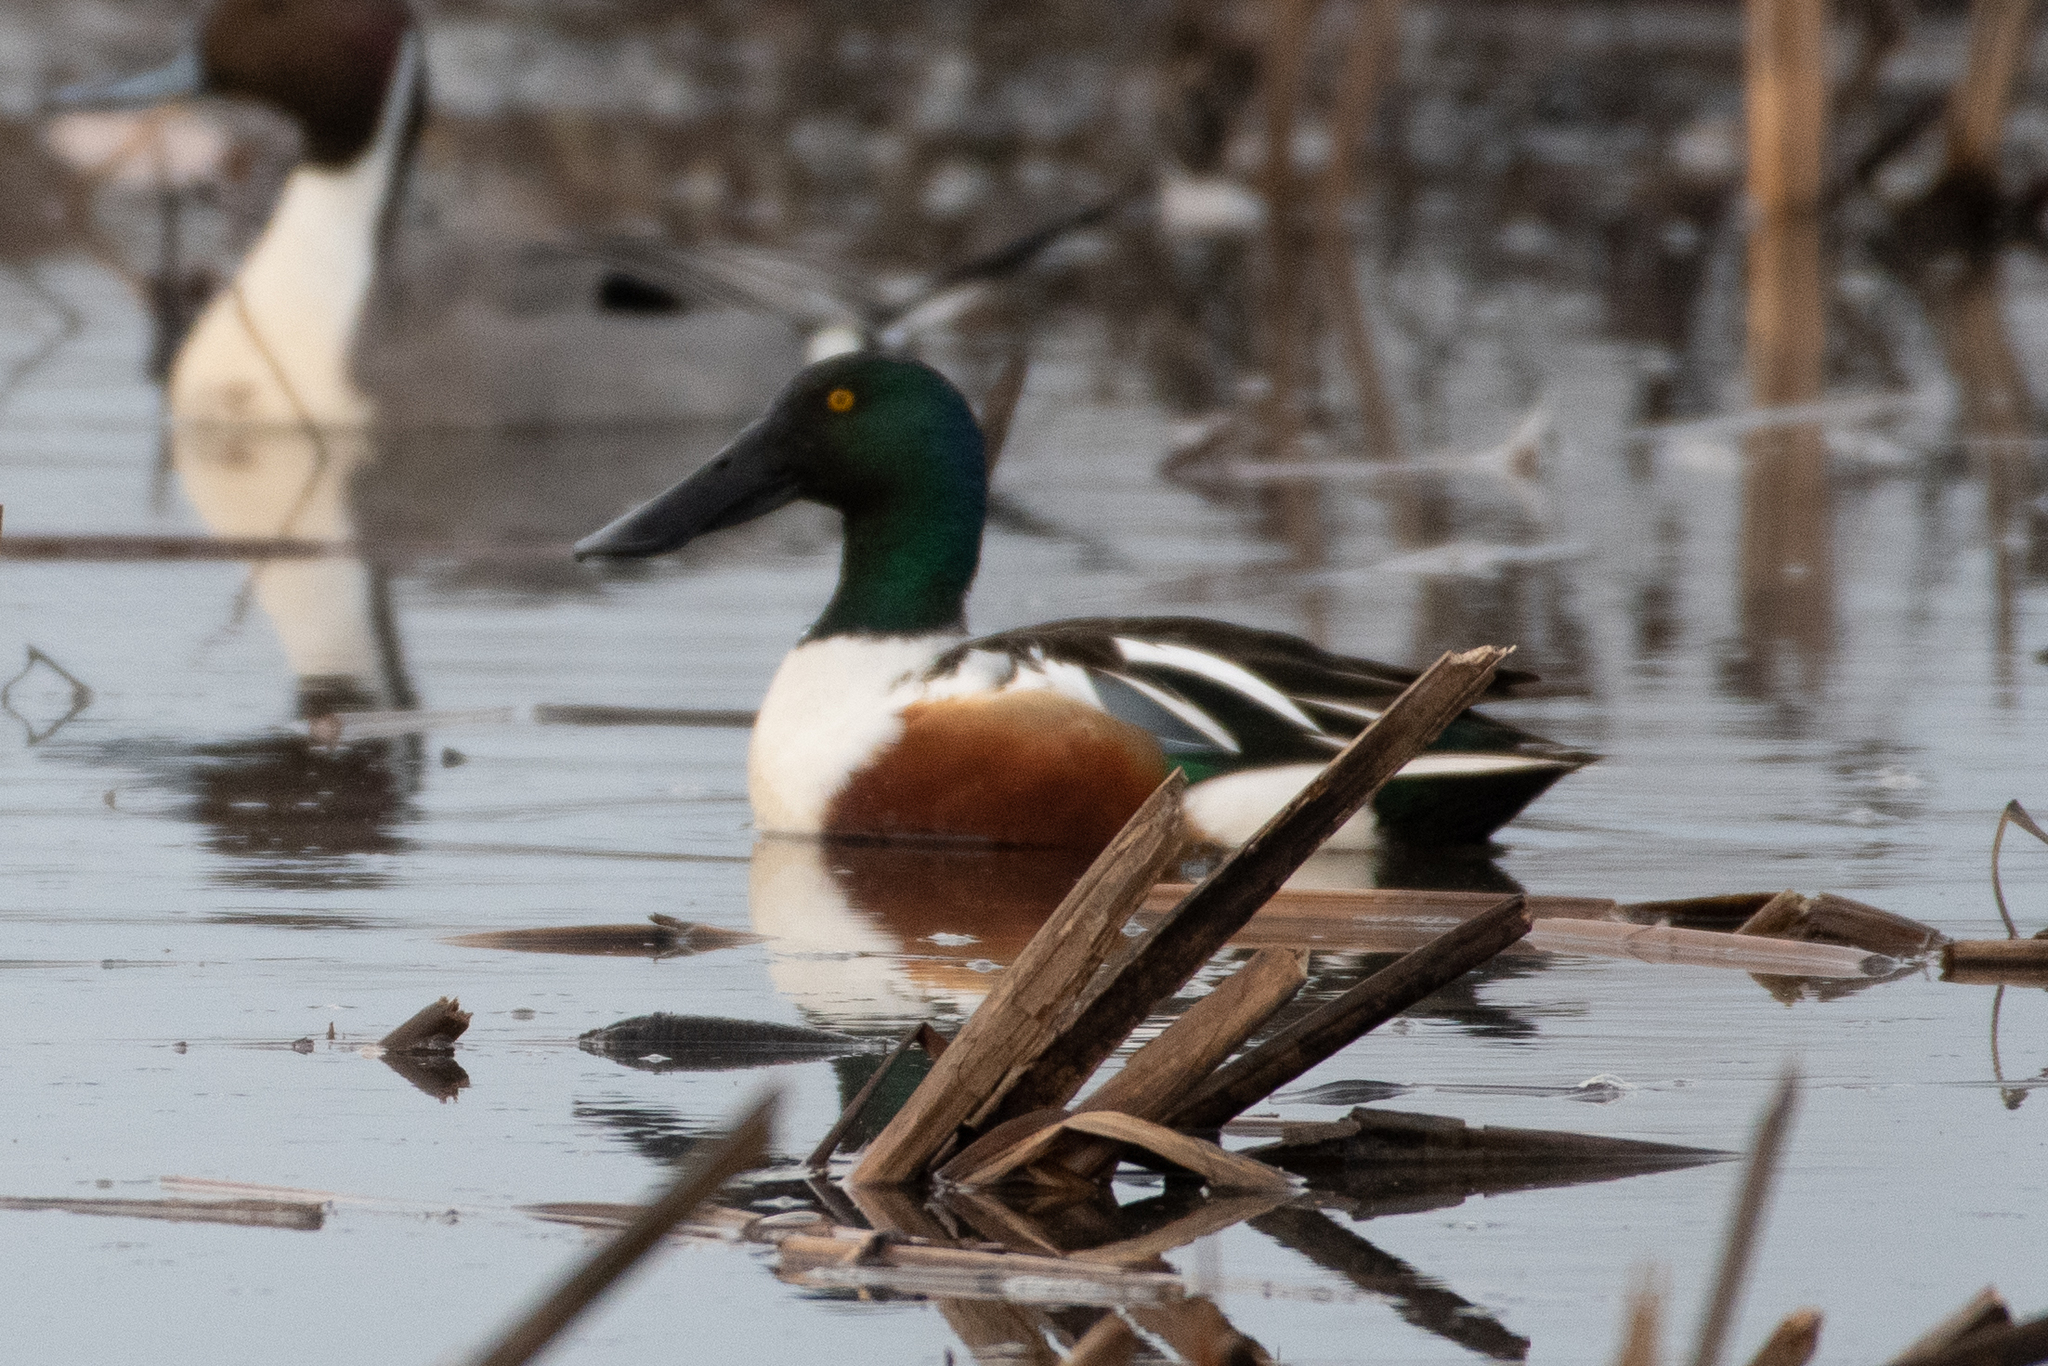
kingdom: Animalia
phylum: Chordata
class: Aves
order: Anseriformes
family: Anatidae
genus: Spatula
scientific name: Spatula clypeata
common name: Northern shoveler
